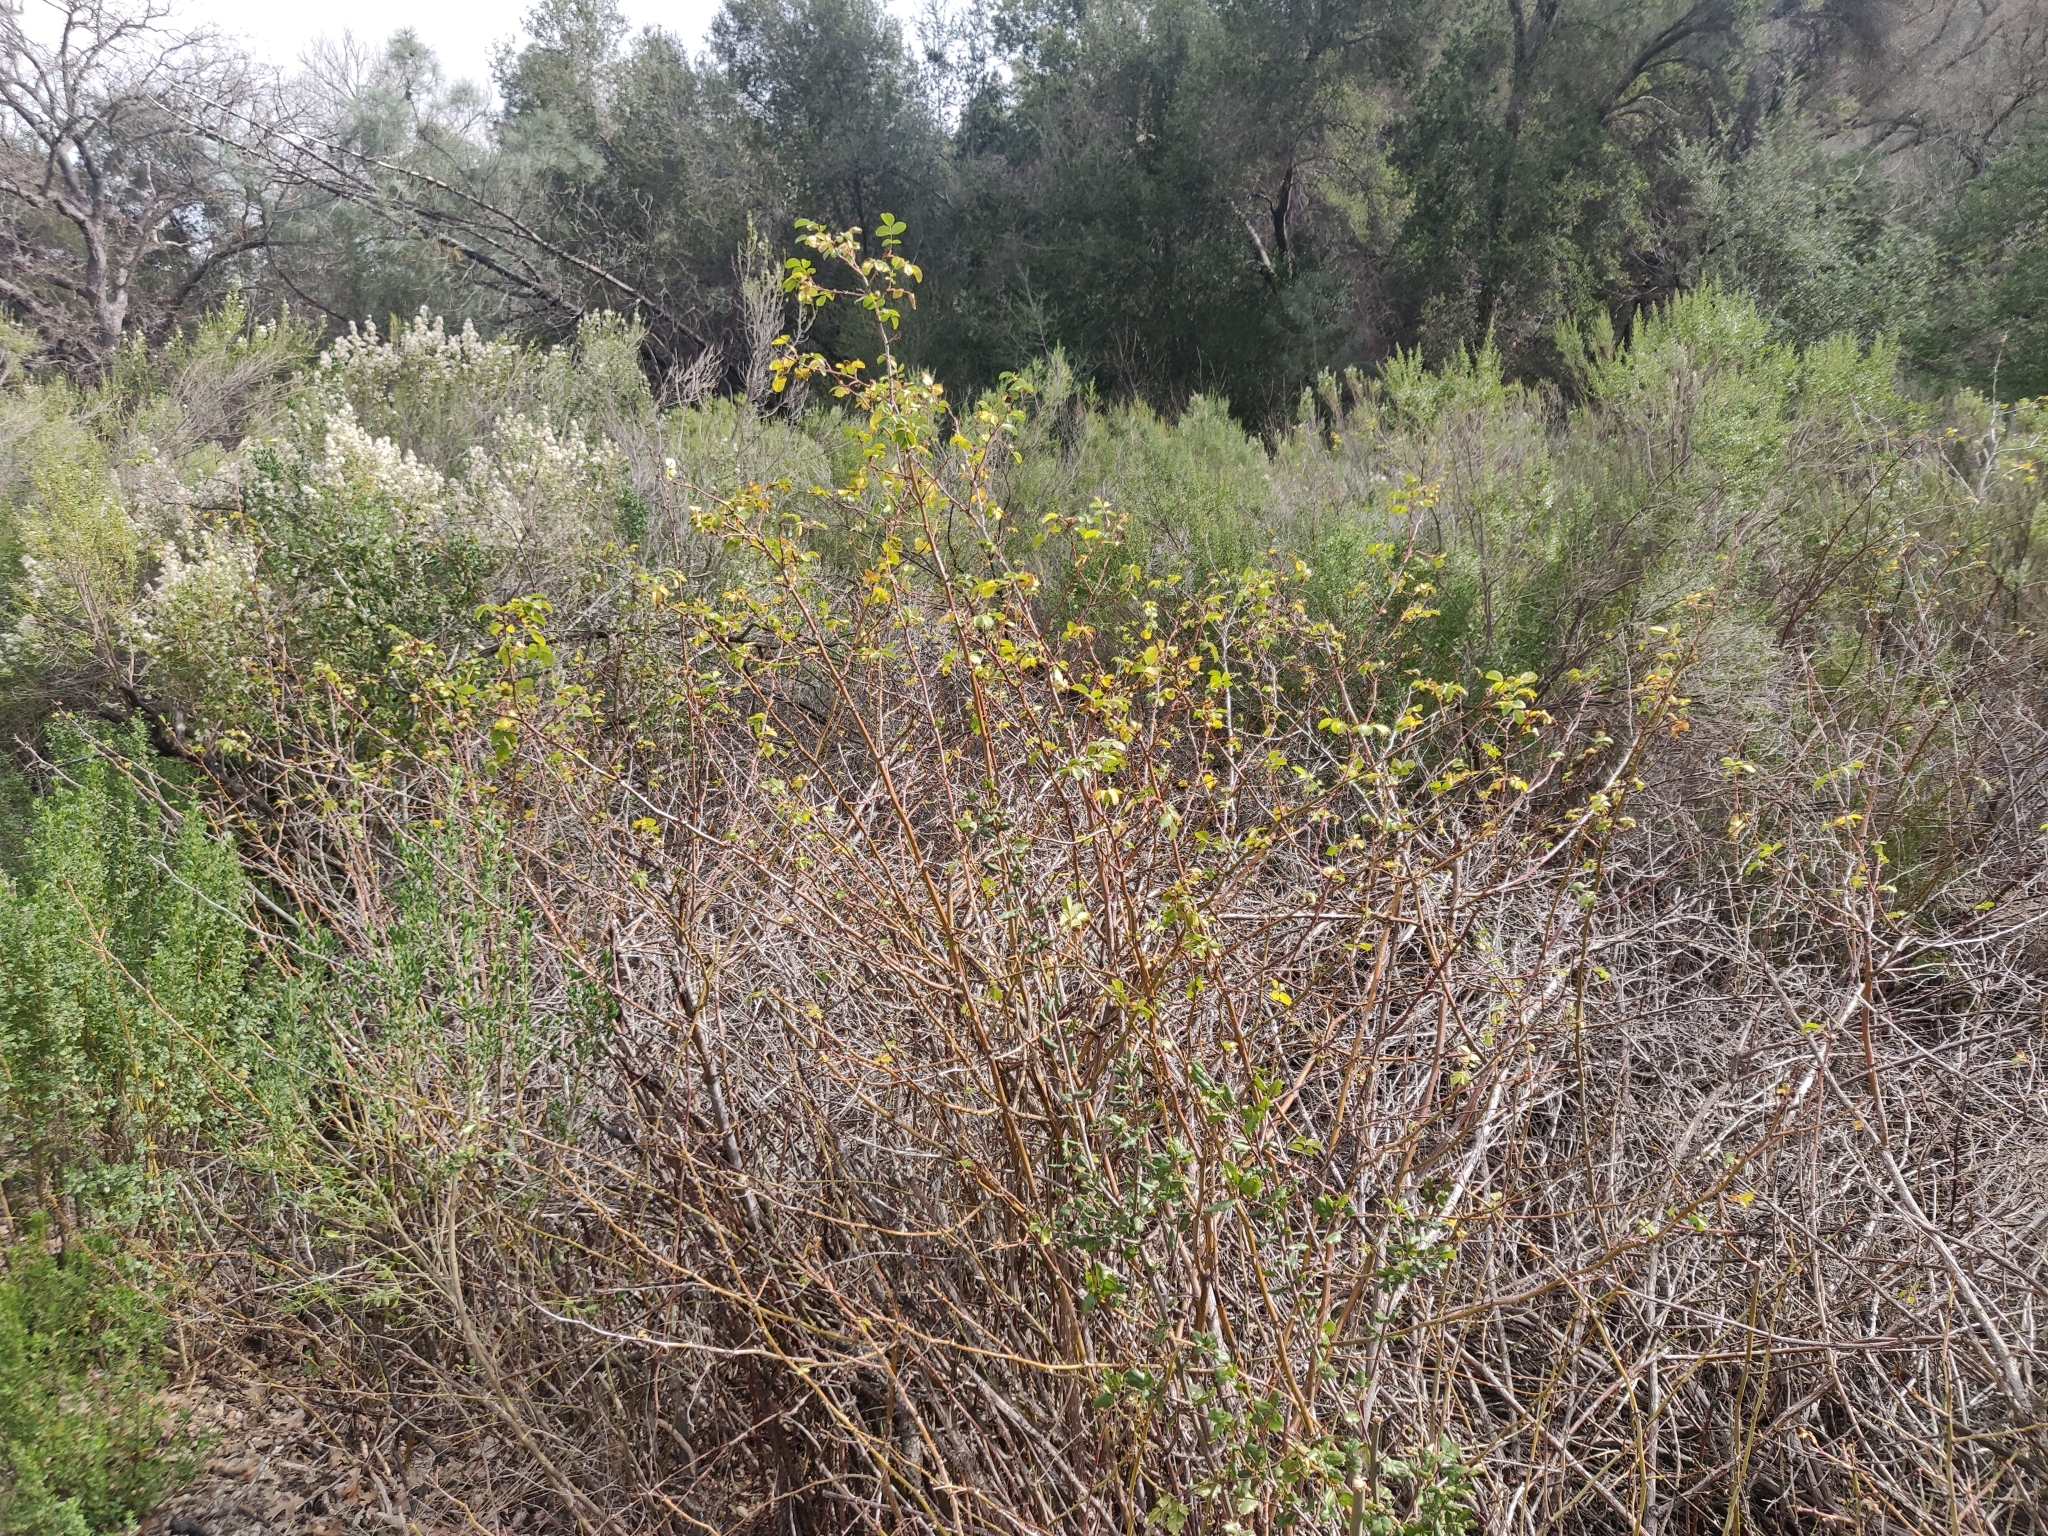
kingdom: Plantae
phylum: Tracheophyta
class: Magnoliopsida
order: Rosales
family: Rosaceae
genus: Rosa
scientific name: Rosa californica
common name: California rose
